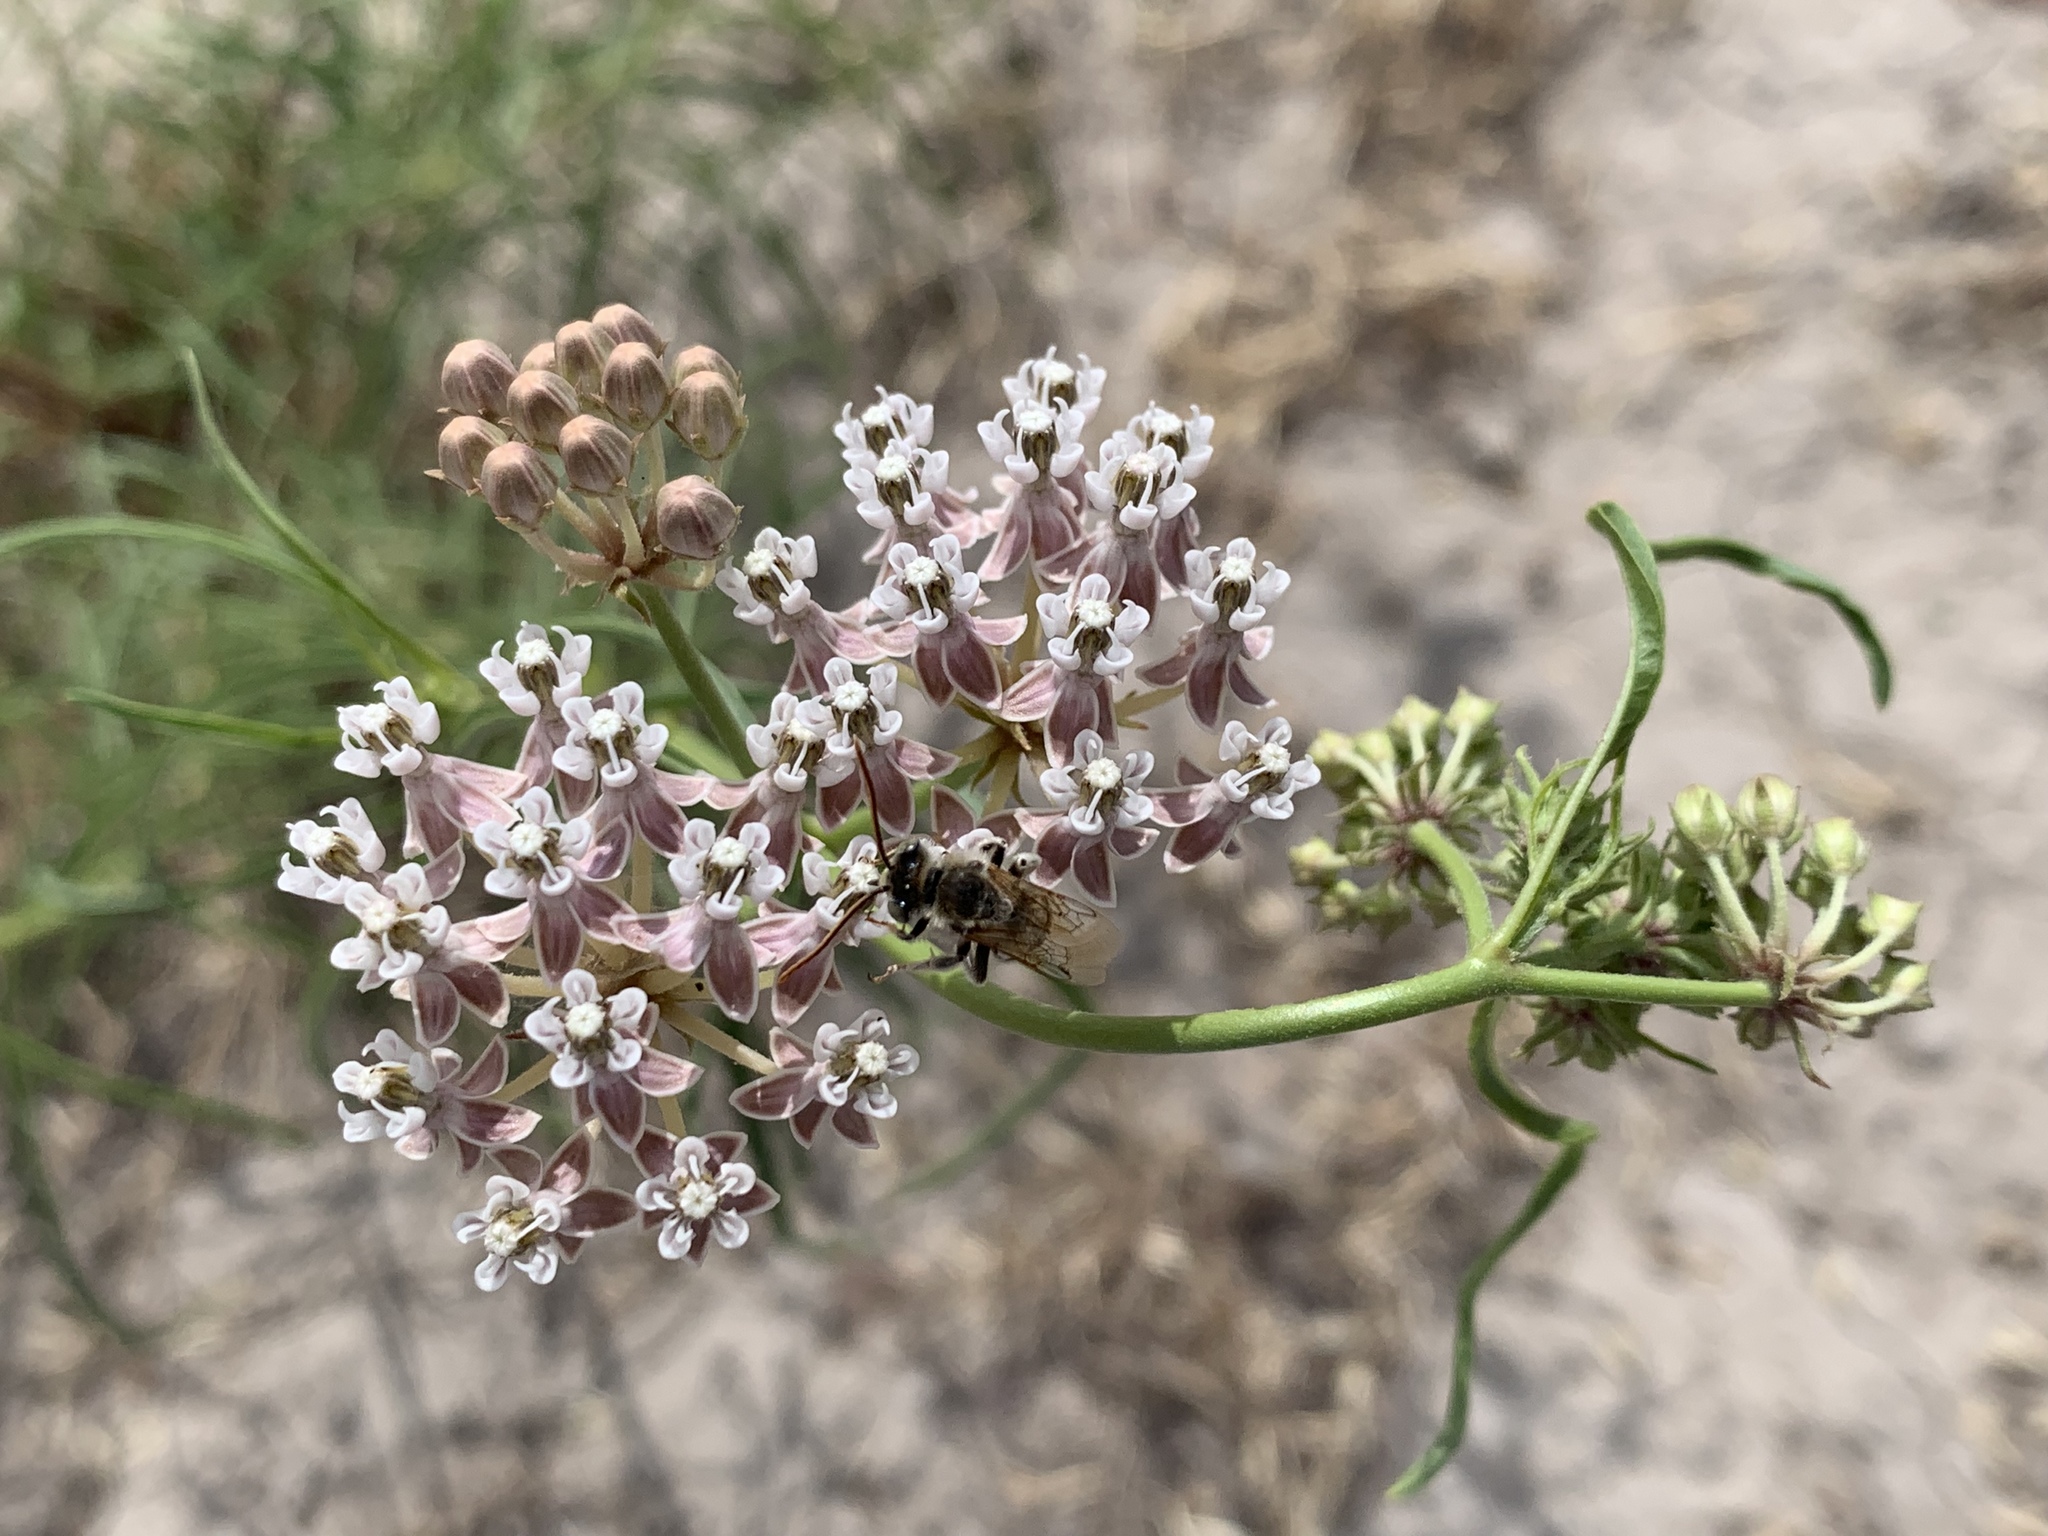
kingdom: Plantae
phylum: Tracheophyta
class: Magnoliopsida
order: Gentianales
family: Apocynaceae
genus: Asclepias
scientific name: Asclepias fascicularis
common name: Mexican milkweed
